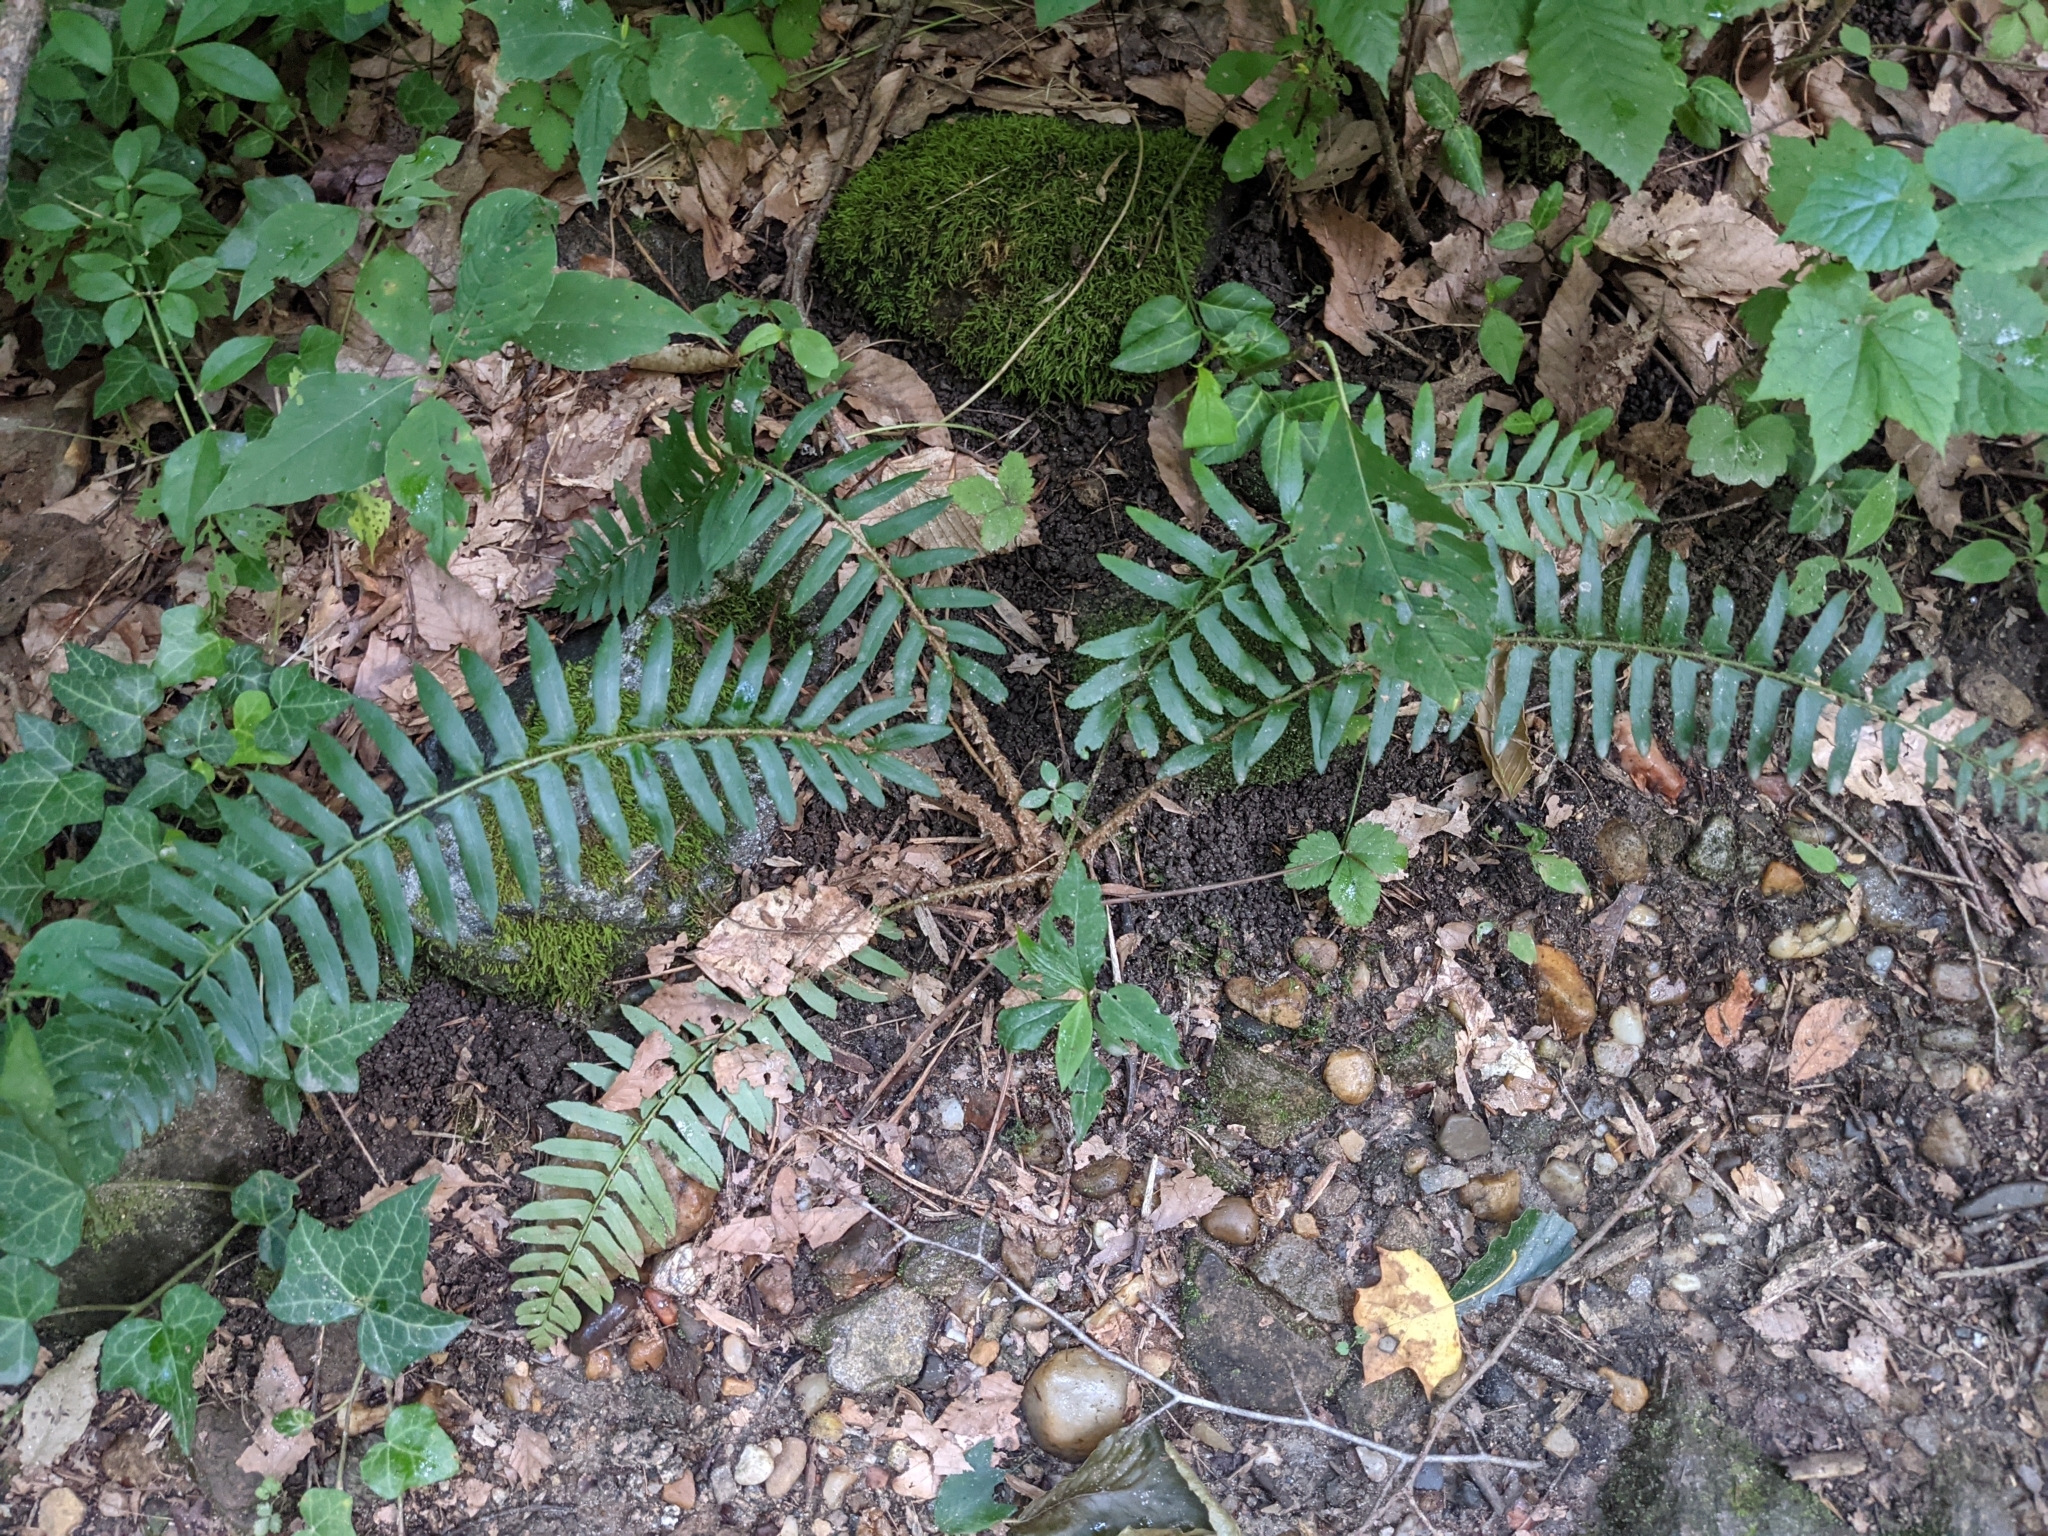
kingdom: Plantae
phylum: Tracheophyta
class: Polypodiopsida
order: Polypodiales
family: Dryopteridaceae
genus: Polystichum
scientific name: Polystichum acrostichoides
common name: Christmas fern
